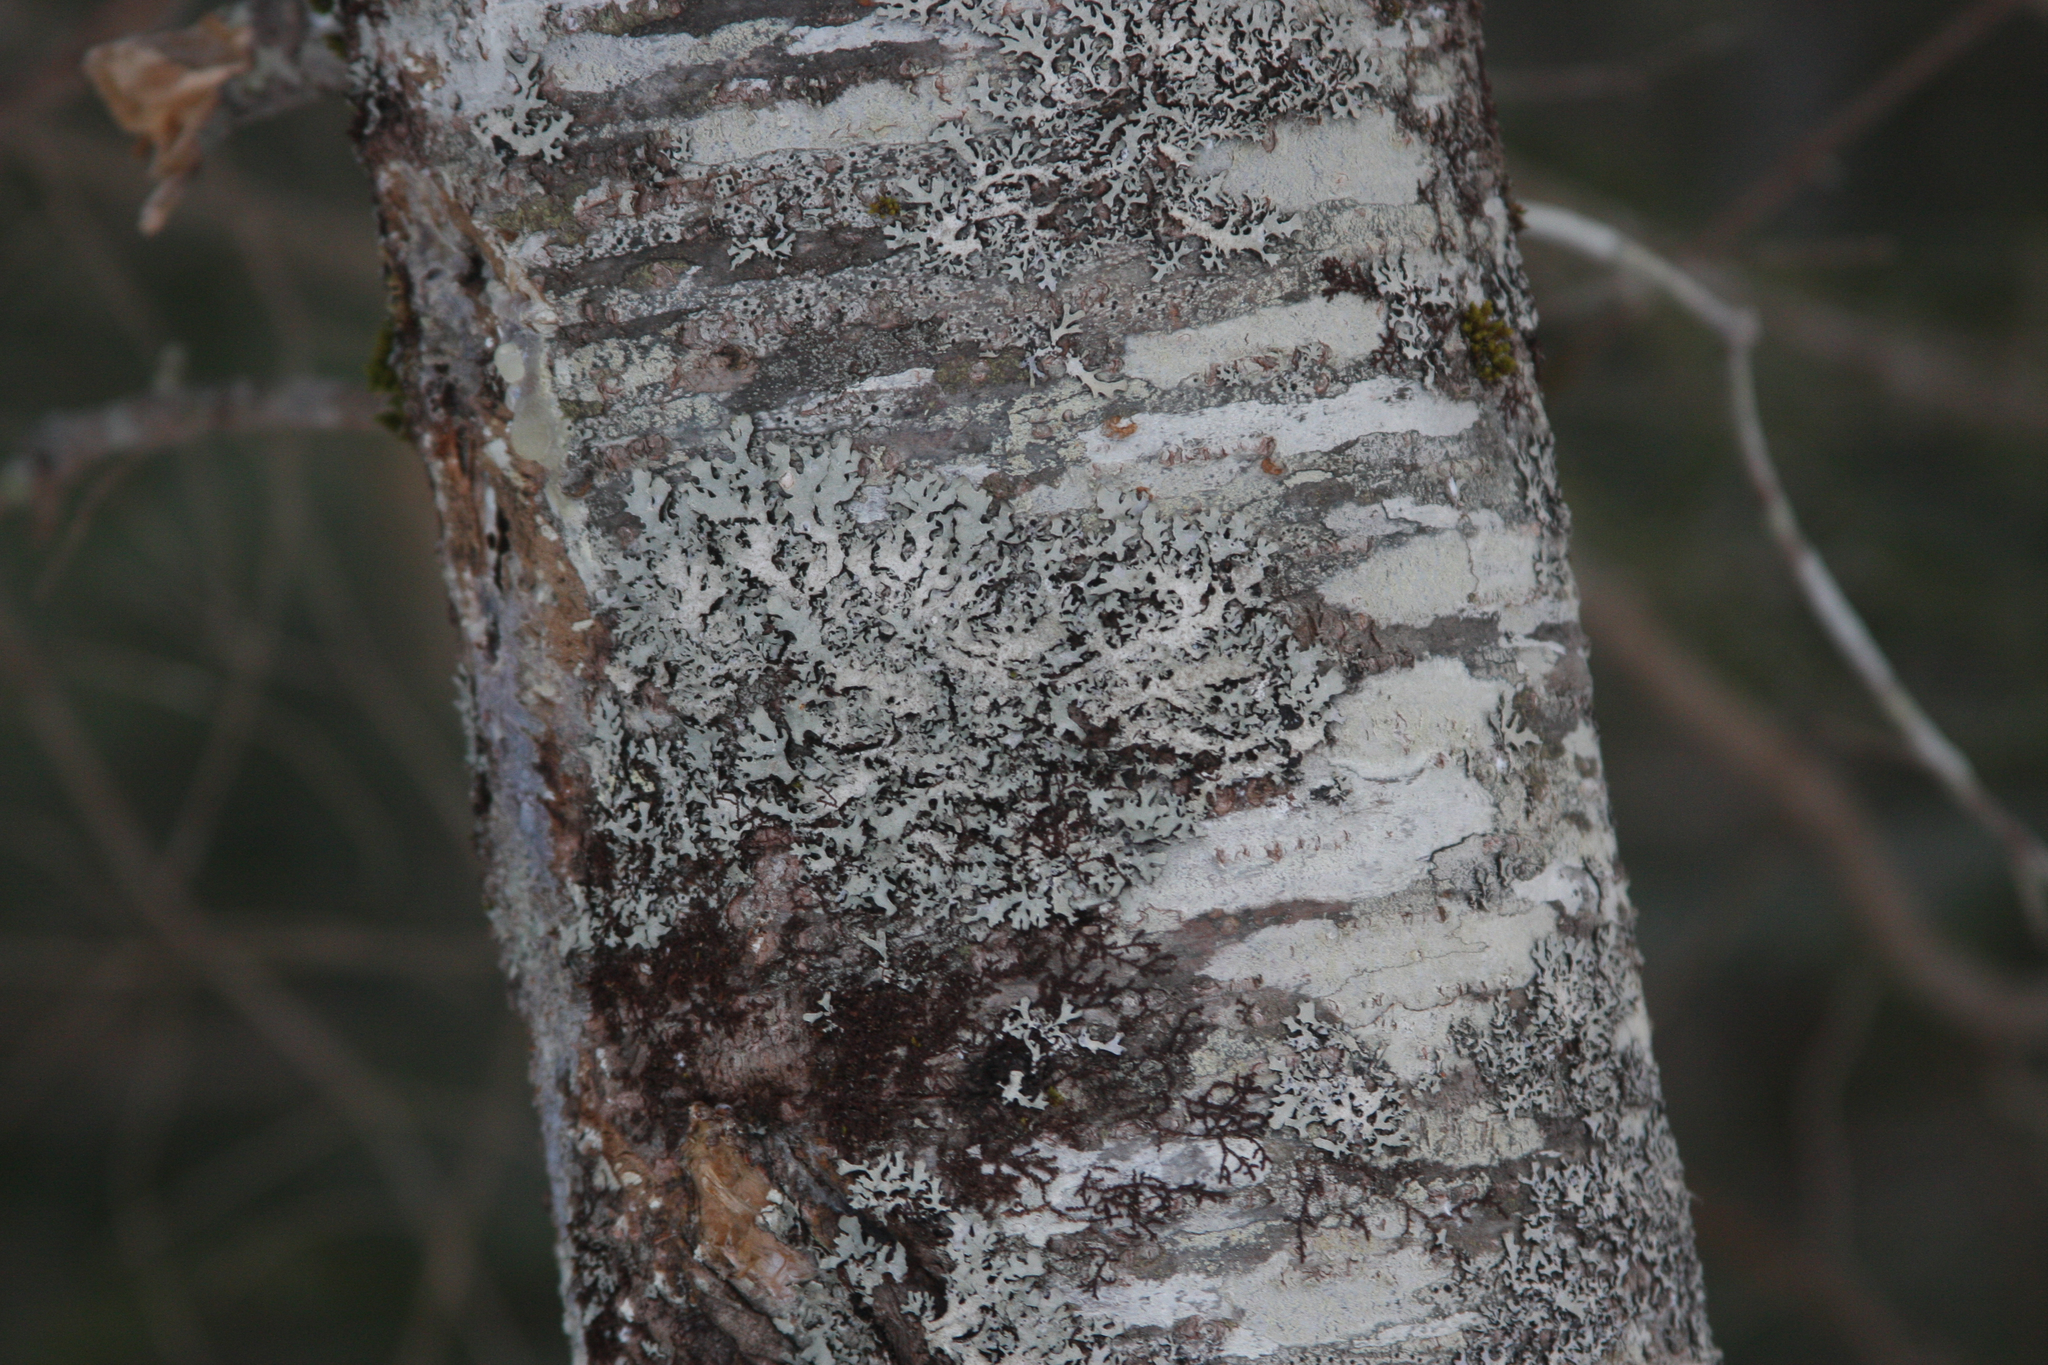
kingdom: Fungi
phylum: Ascomycota
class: Lecanoromycetes
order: Lecanorales
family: Parmeliaceae
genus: Parmelia
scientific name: Parmelia sulcata
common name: Netted shield lichen
